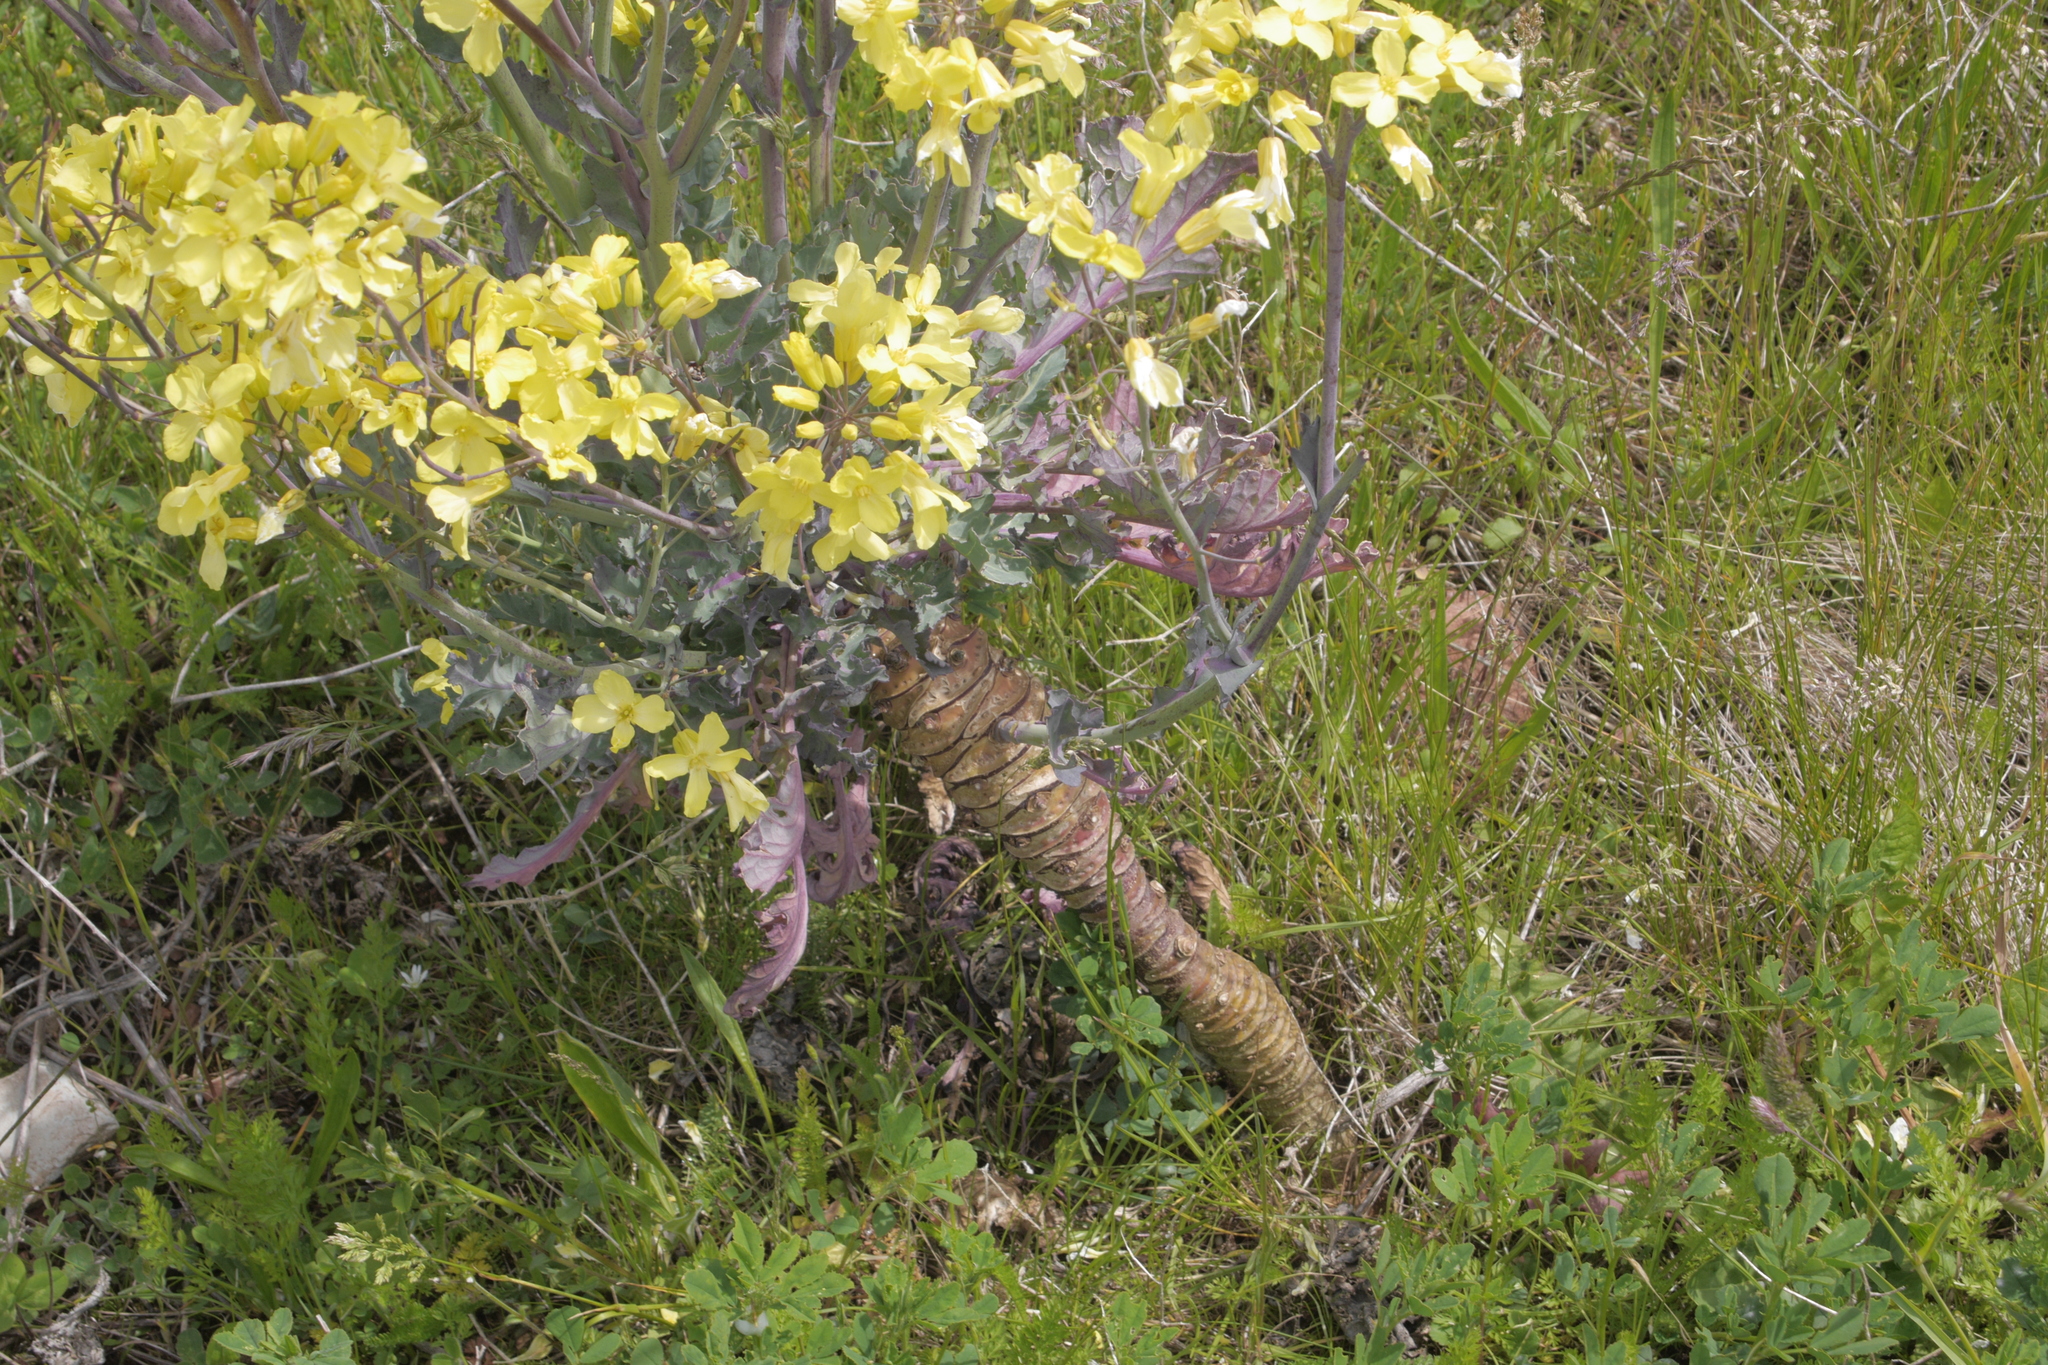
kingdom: Plantae
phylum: Tracheophyta
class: Magnoliopsida
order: Brassicales
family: Brassicaceae
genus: Brassica
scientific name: Brassica oleracea
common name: Cabbage
